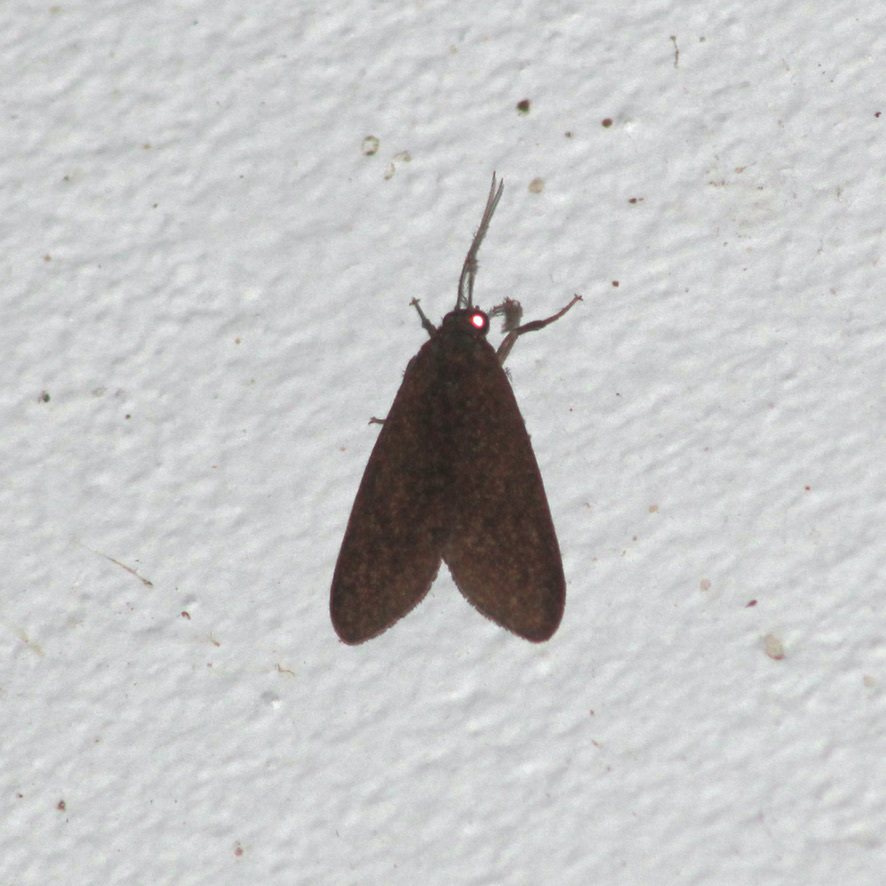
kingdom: Animalia
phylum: Arthropoda
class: Insecta
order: Lepidoptera
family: Erebidae
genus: Virbia
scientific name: Virbia medarda
